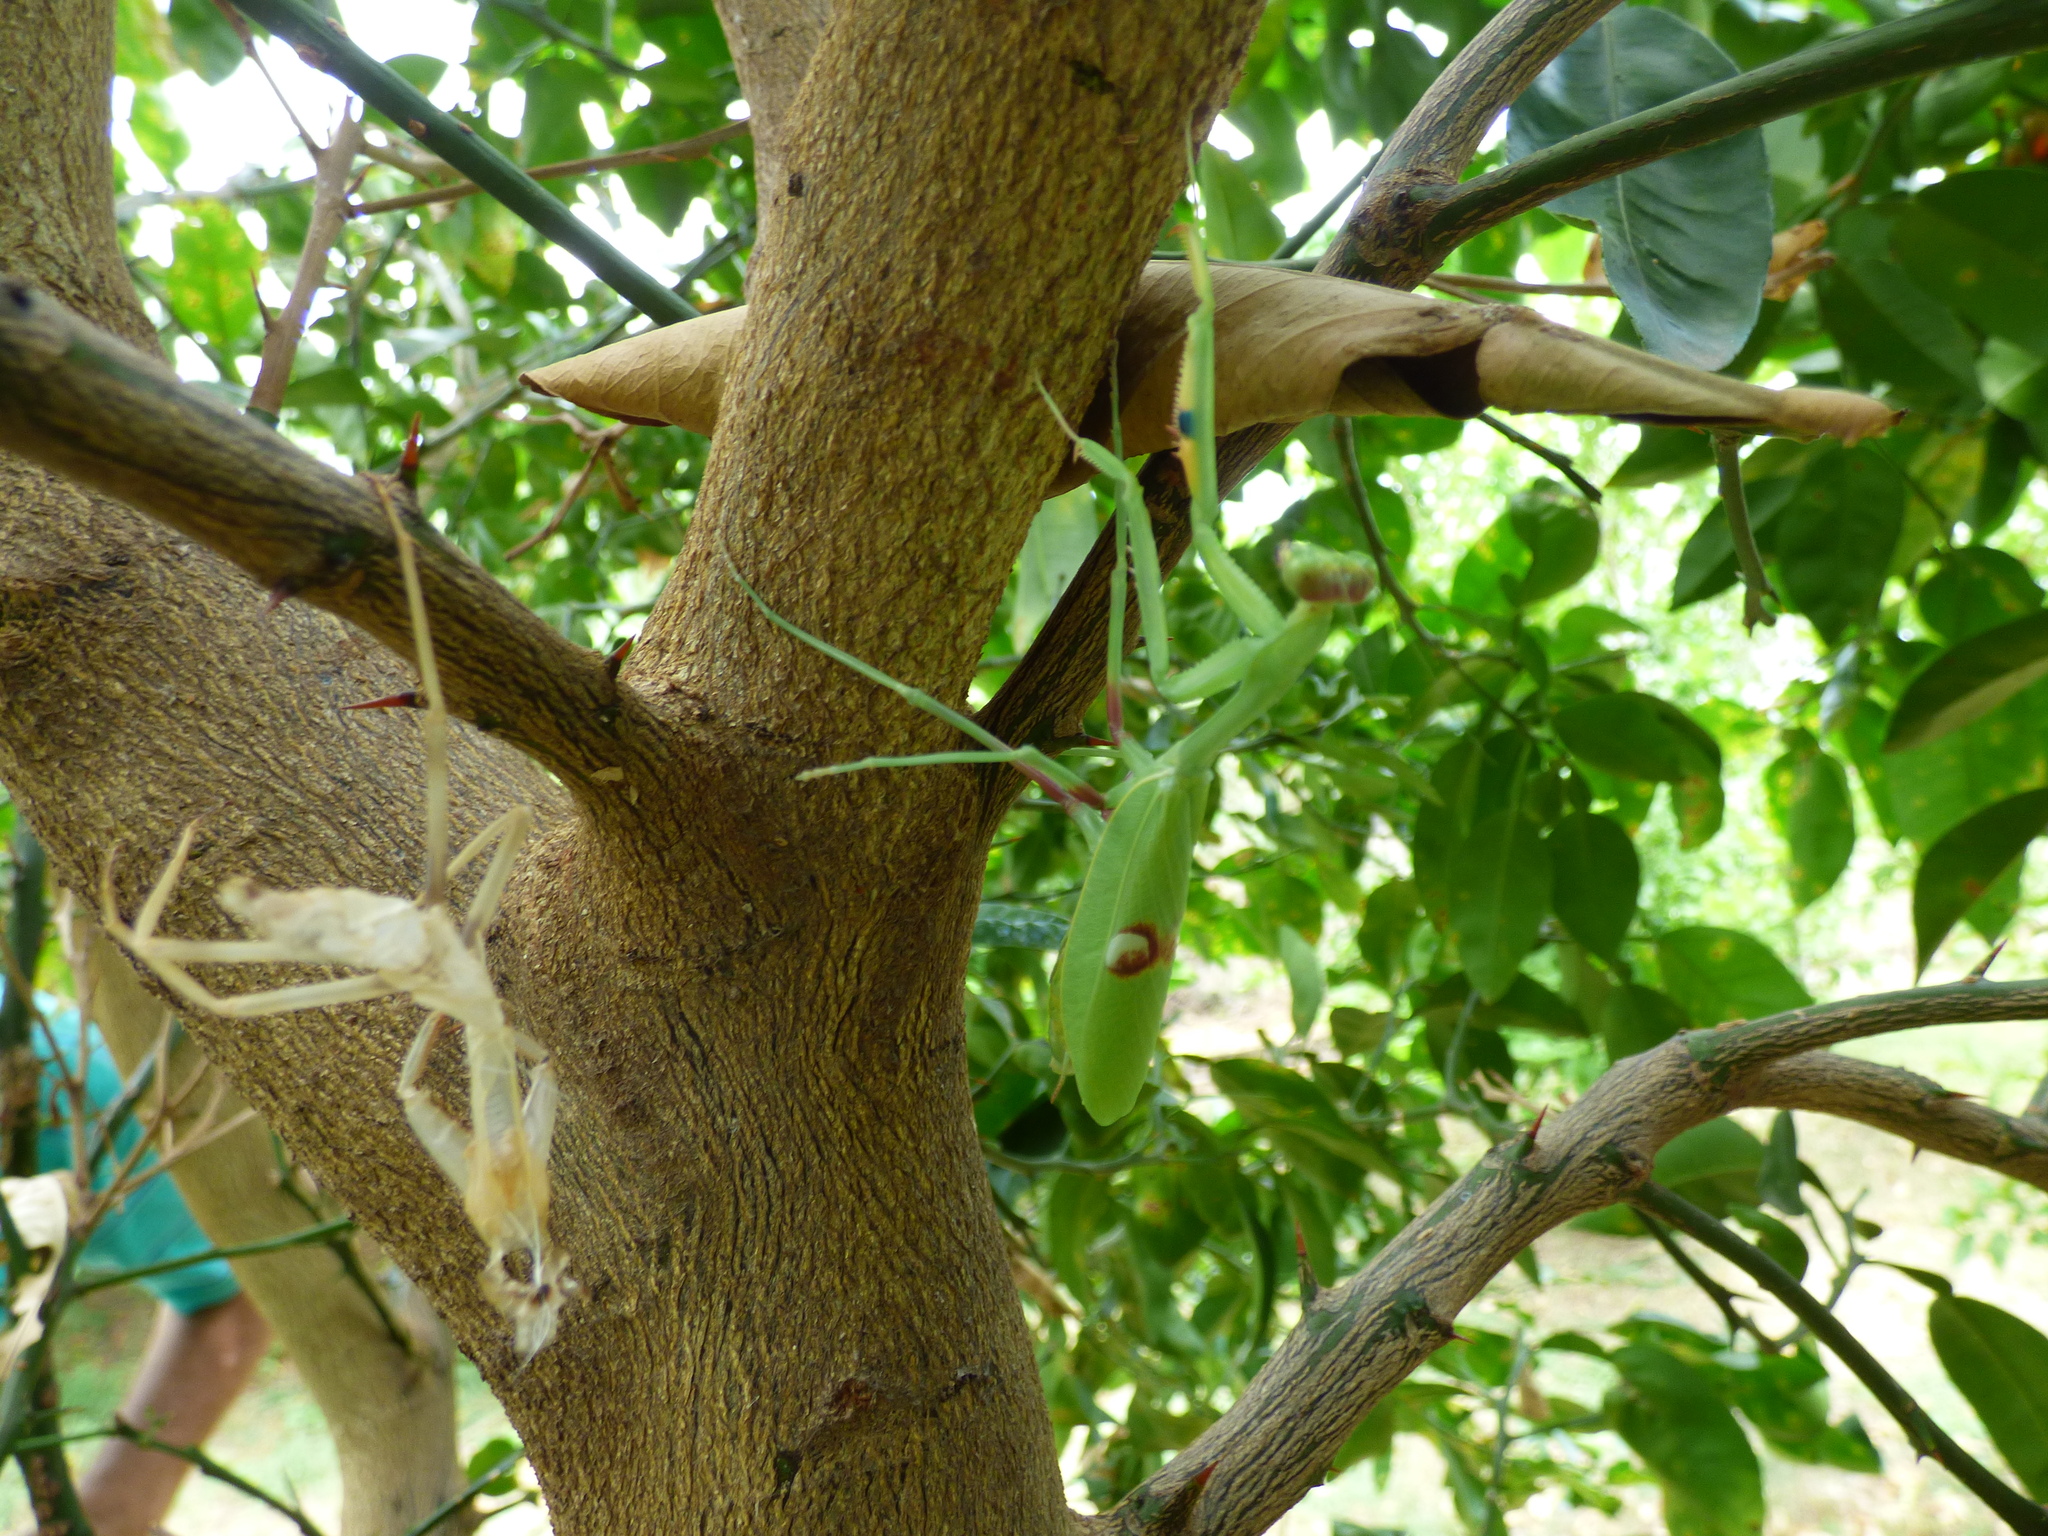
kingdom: Animalia
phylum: Arthropoda
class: Insecta
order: Mantodea
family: Mantidae
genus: Stagmatoptera
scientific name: Stagmatoptera hyaloptera
